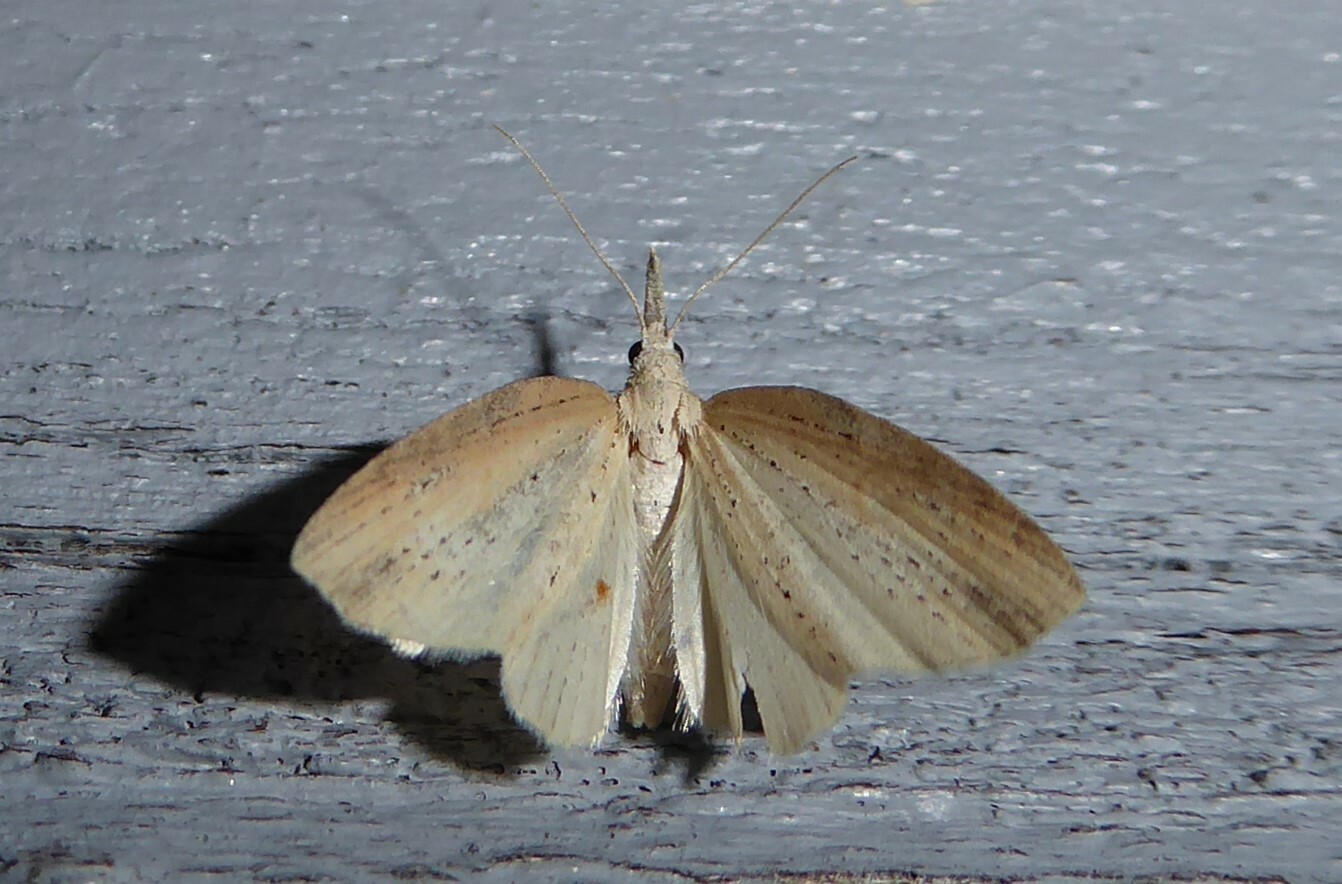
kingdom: Animalia
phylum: Arthropoda
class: Insecta
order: Lepidoptera
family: Geometridae
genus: Microdes
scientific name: Microdes epicryptis
